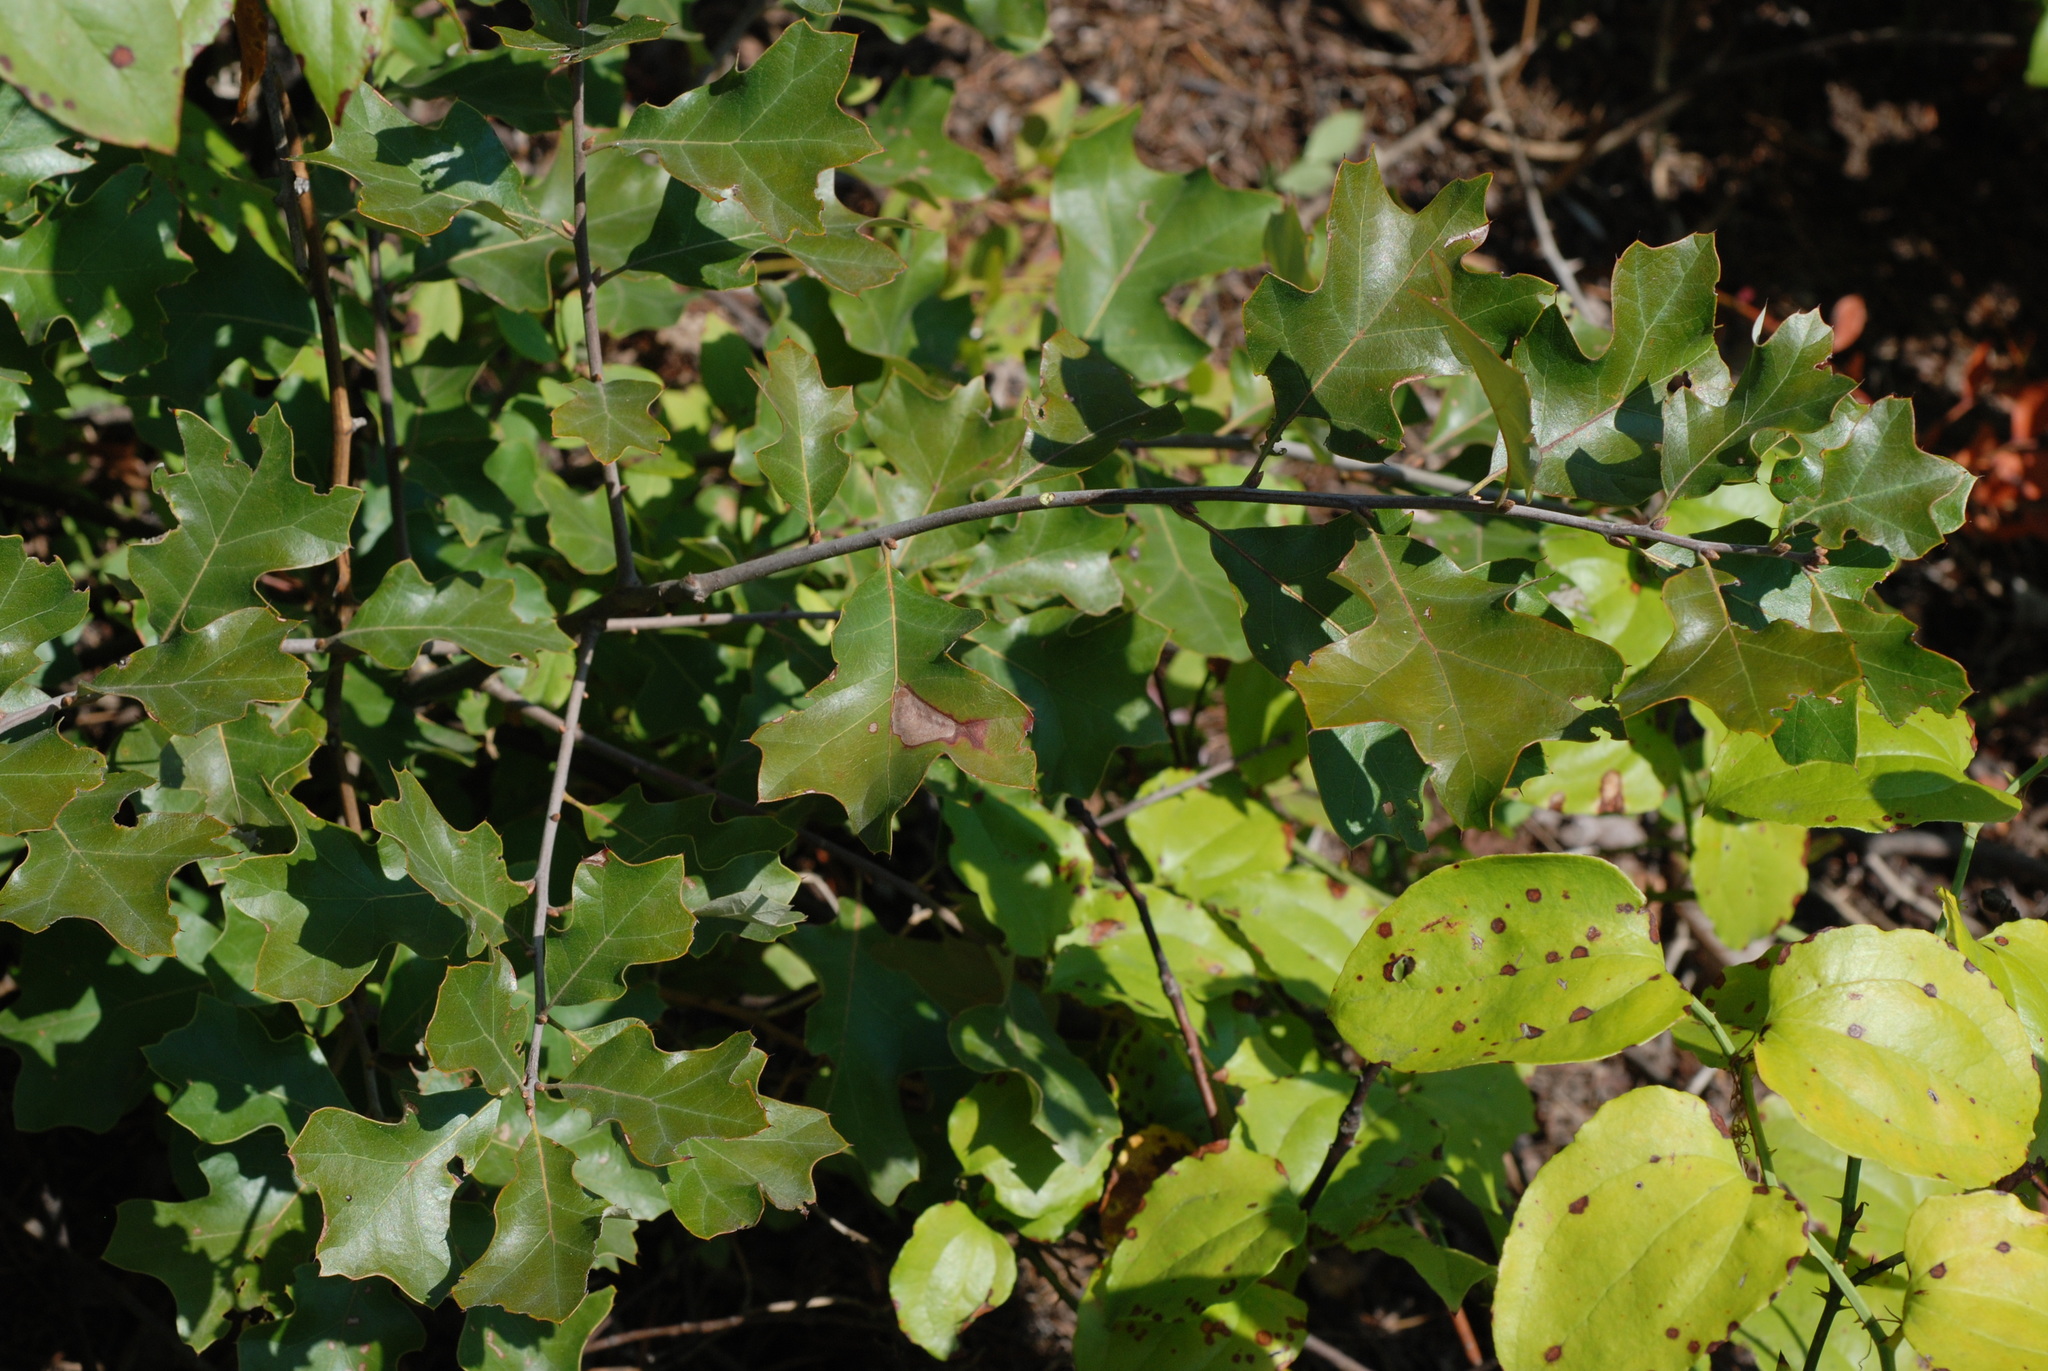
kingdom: Plantae
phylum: Tracheophyta
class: Magnoliopsida
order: Fagales
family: Fagaceae
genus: Quercus
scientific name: Quercus ilicifolia
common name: Bear oak
